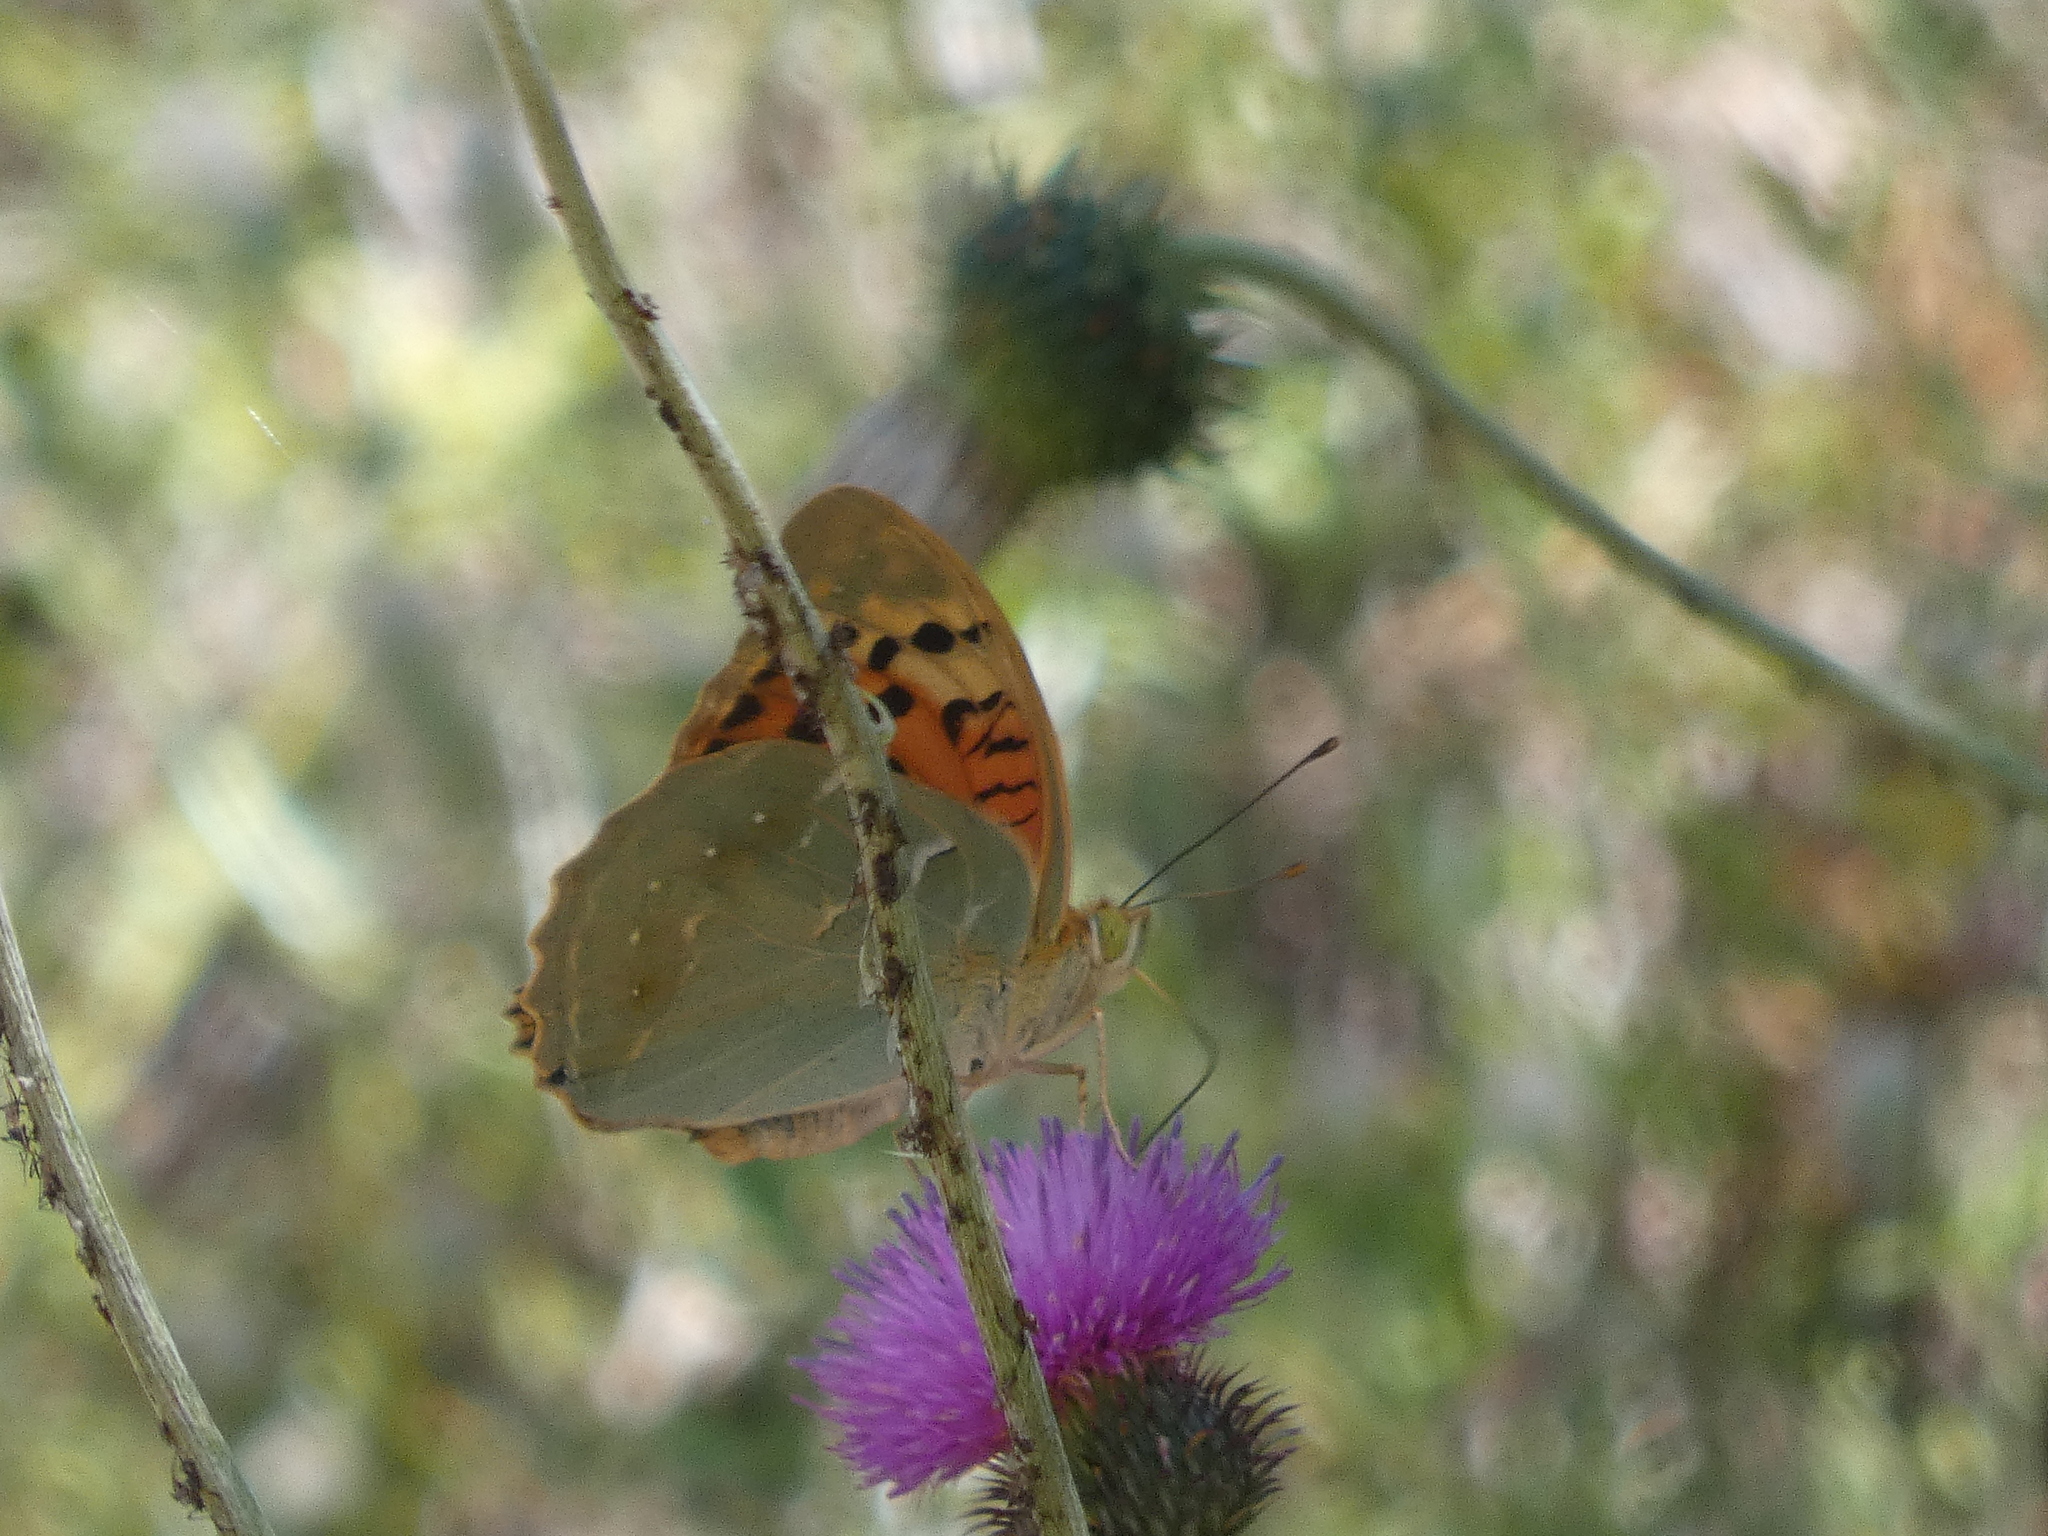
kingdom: Animalia
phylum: Arthropoda
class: Insecta
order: Lepidoptera
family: Nymphalidae
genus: Damora
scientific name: Damora pandora
